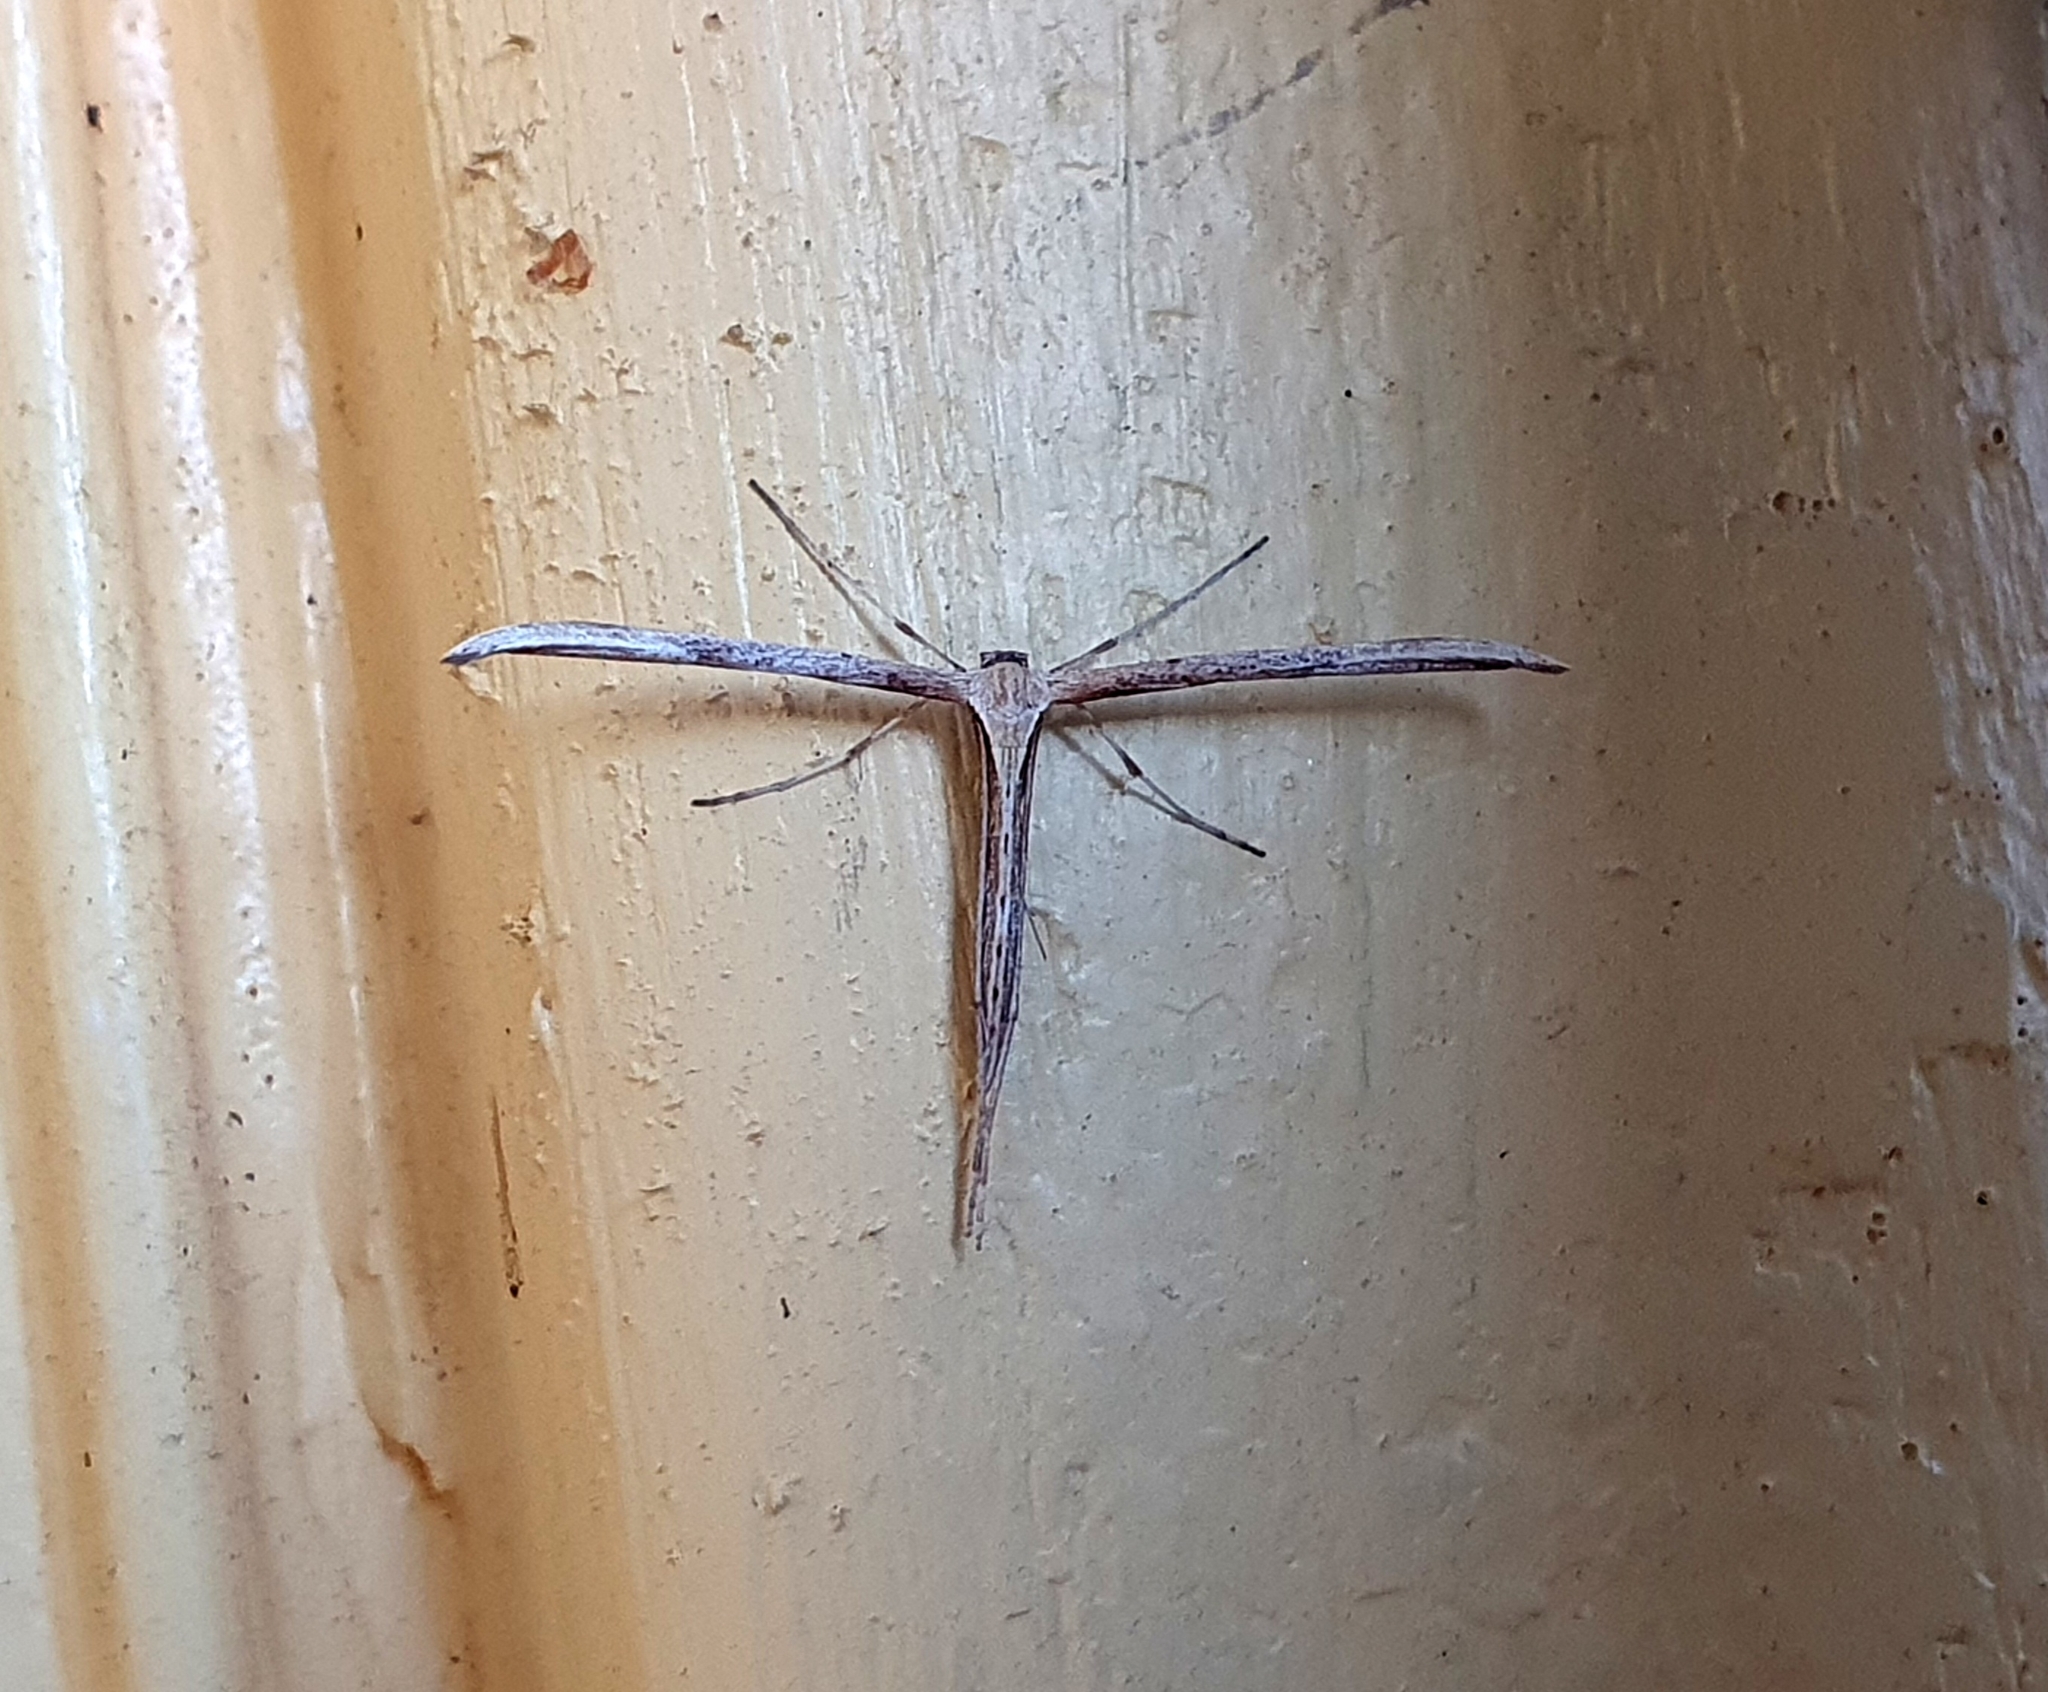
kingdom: Animalia
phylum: Arthropoda
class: Insecta
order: Lepidoptera
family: Pterophoridae
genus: Emmelina
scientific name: Emmelina monodactyla
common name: Common plume
